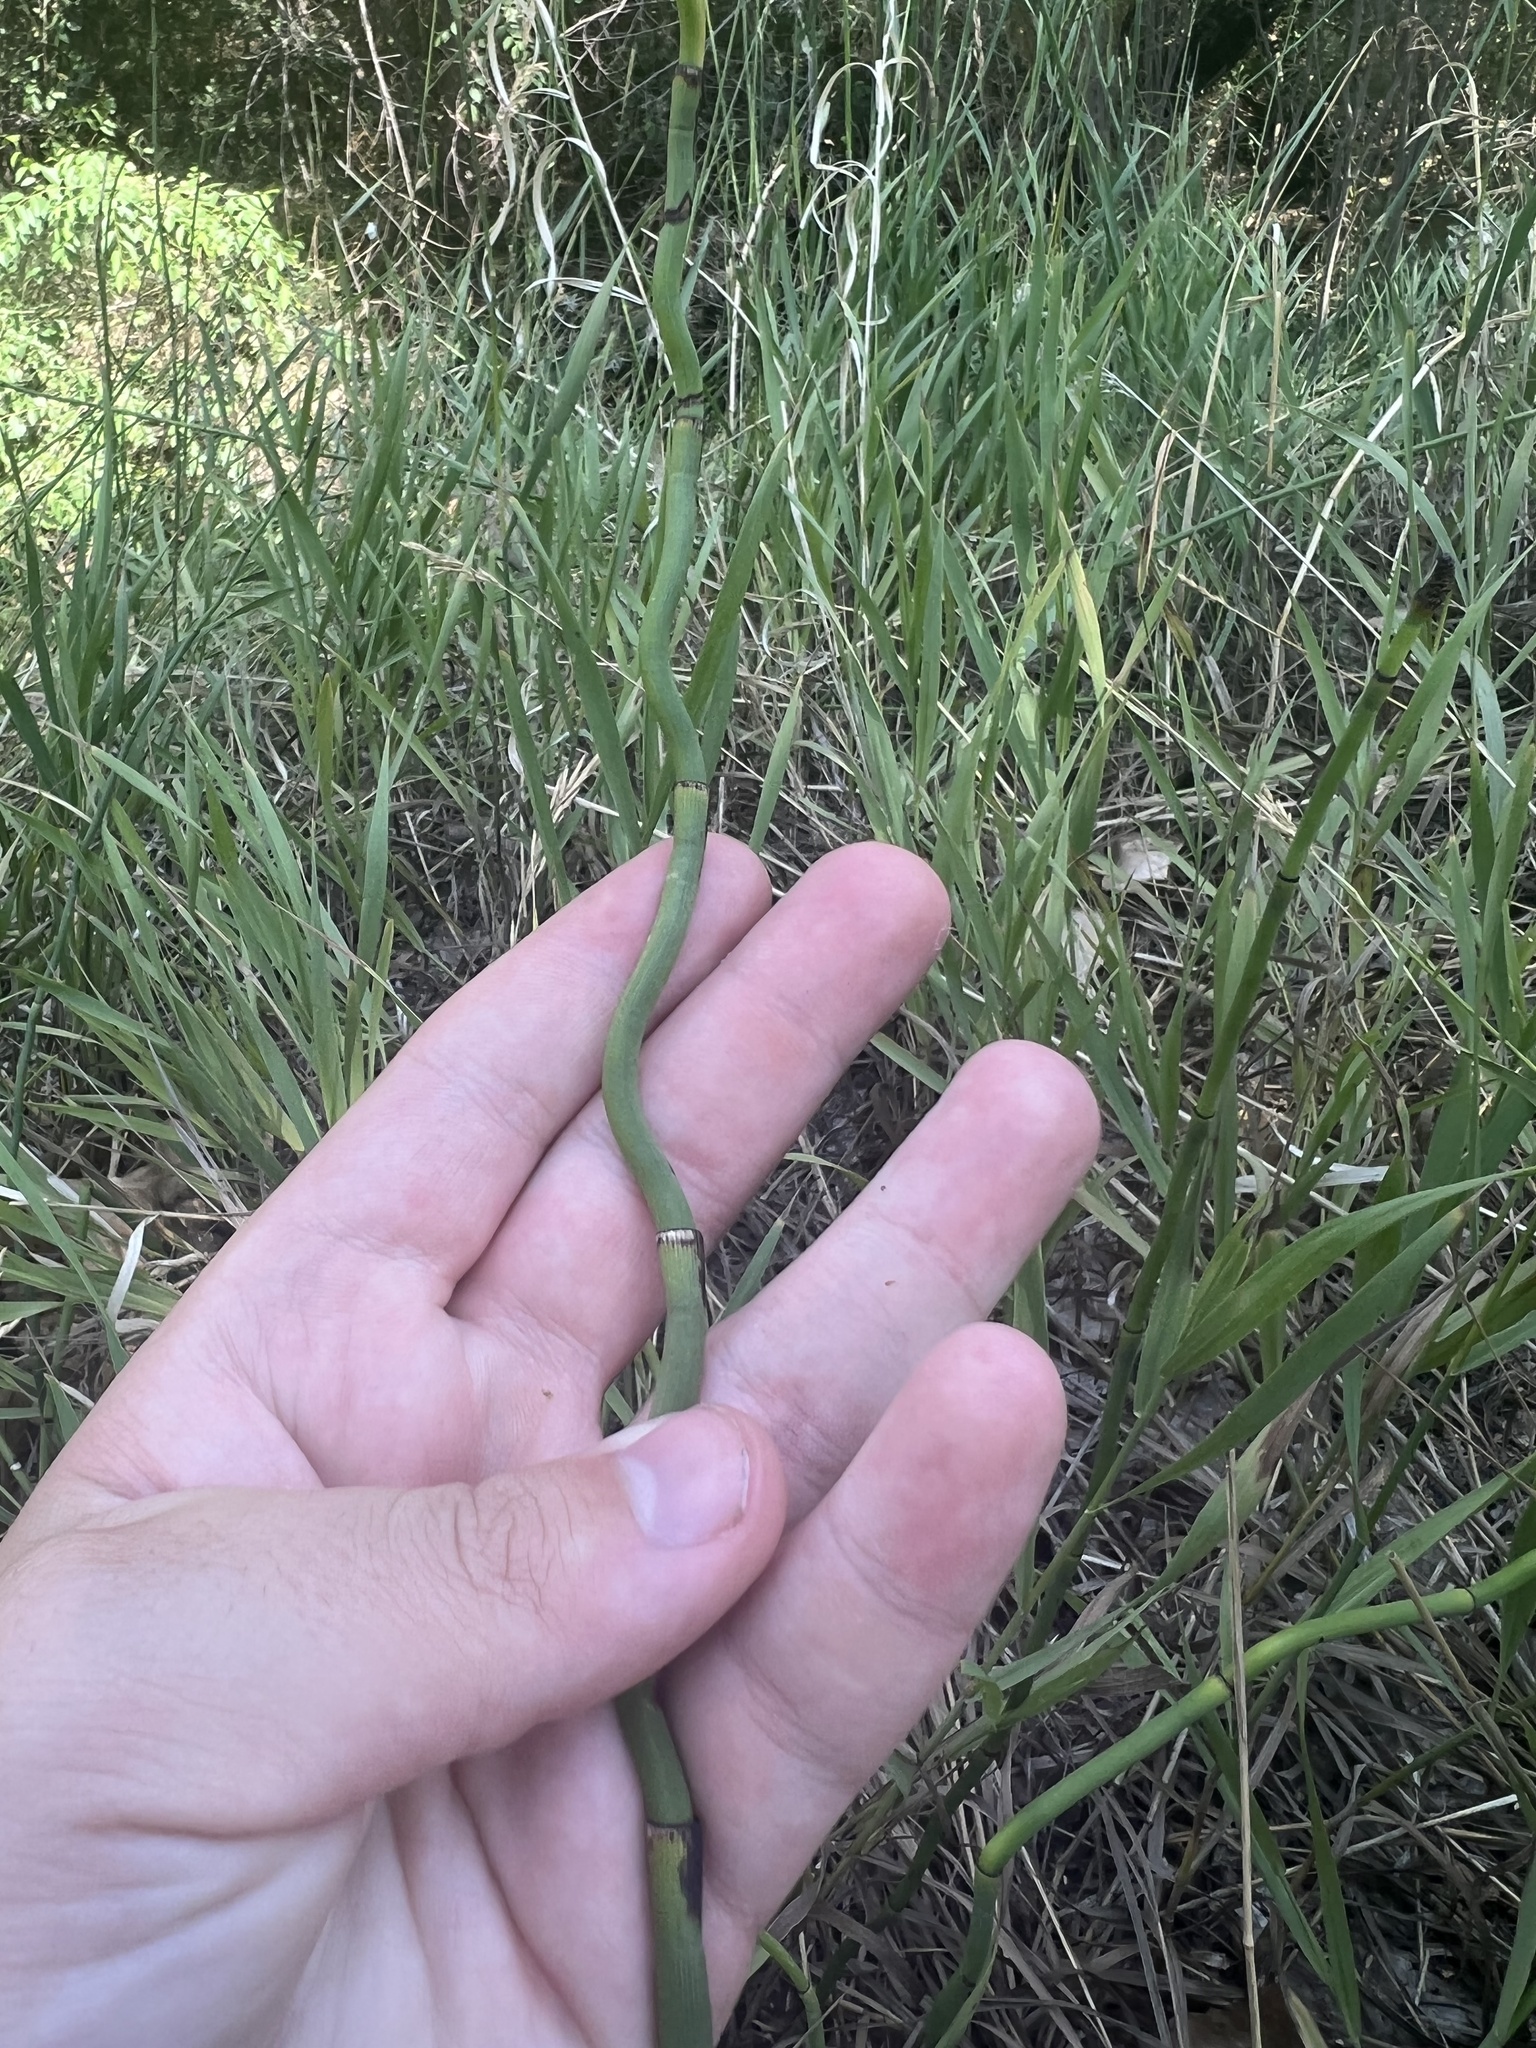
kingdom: Plantae
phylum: Tracheophyta
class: Polypodiopsida
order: Equisetales
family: Equisetaceae
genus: Equisetum
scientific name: Equisetum laevigatum
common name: Smooth scouring-rush
